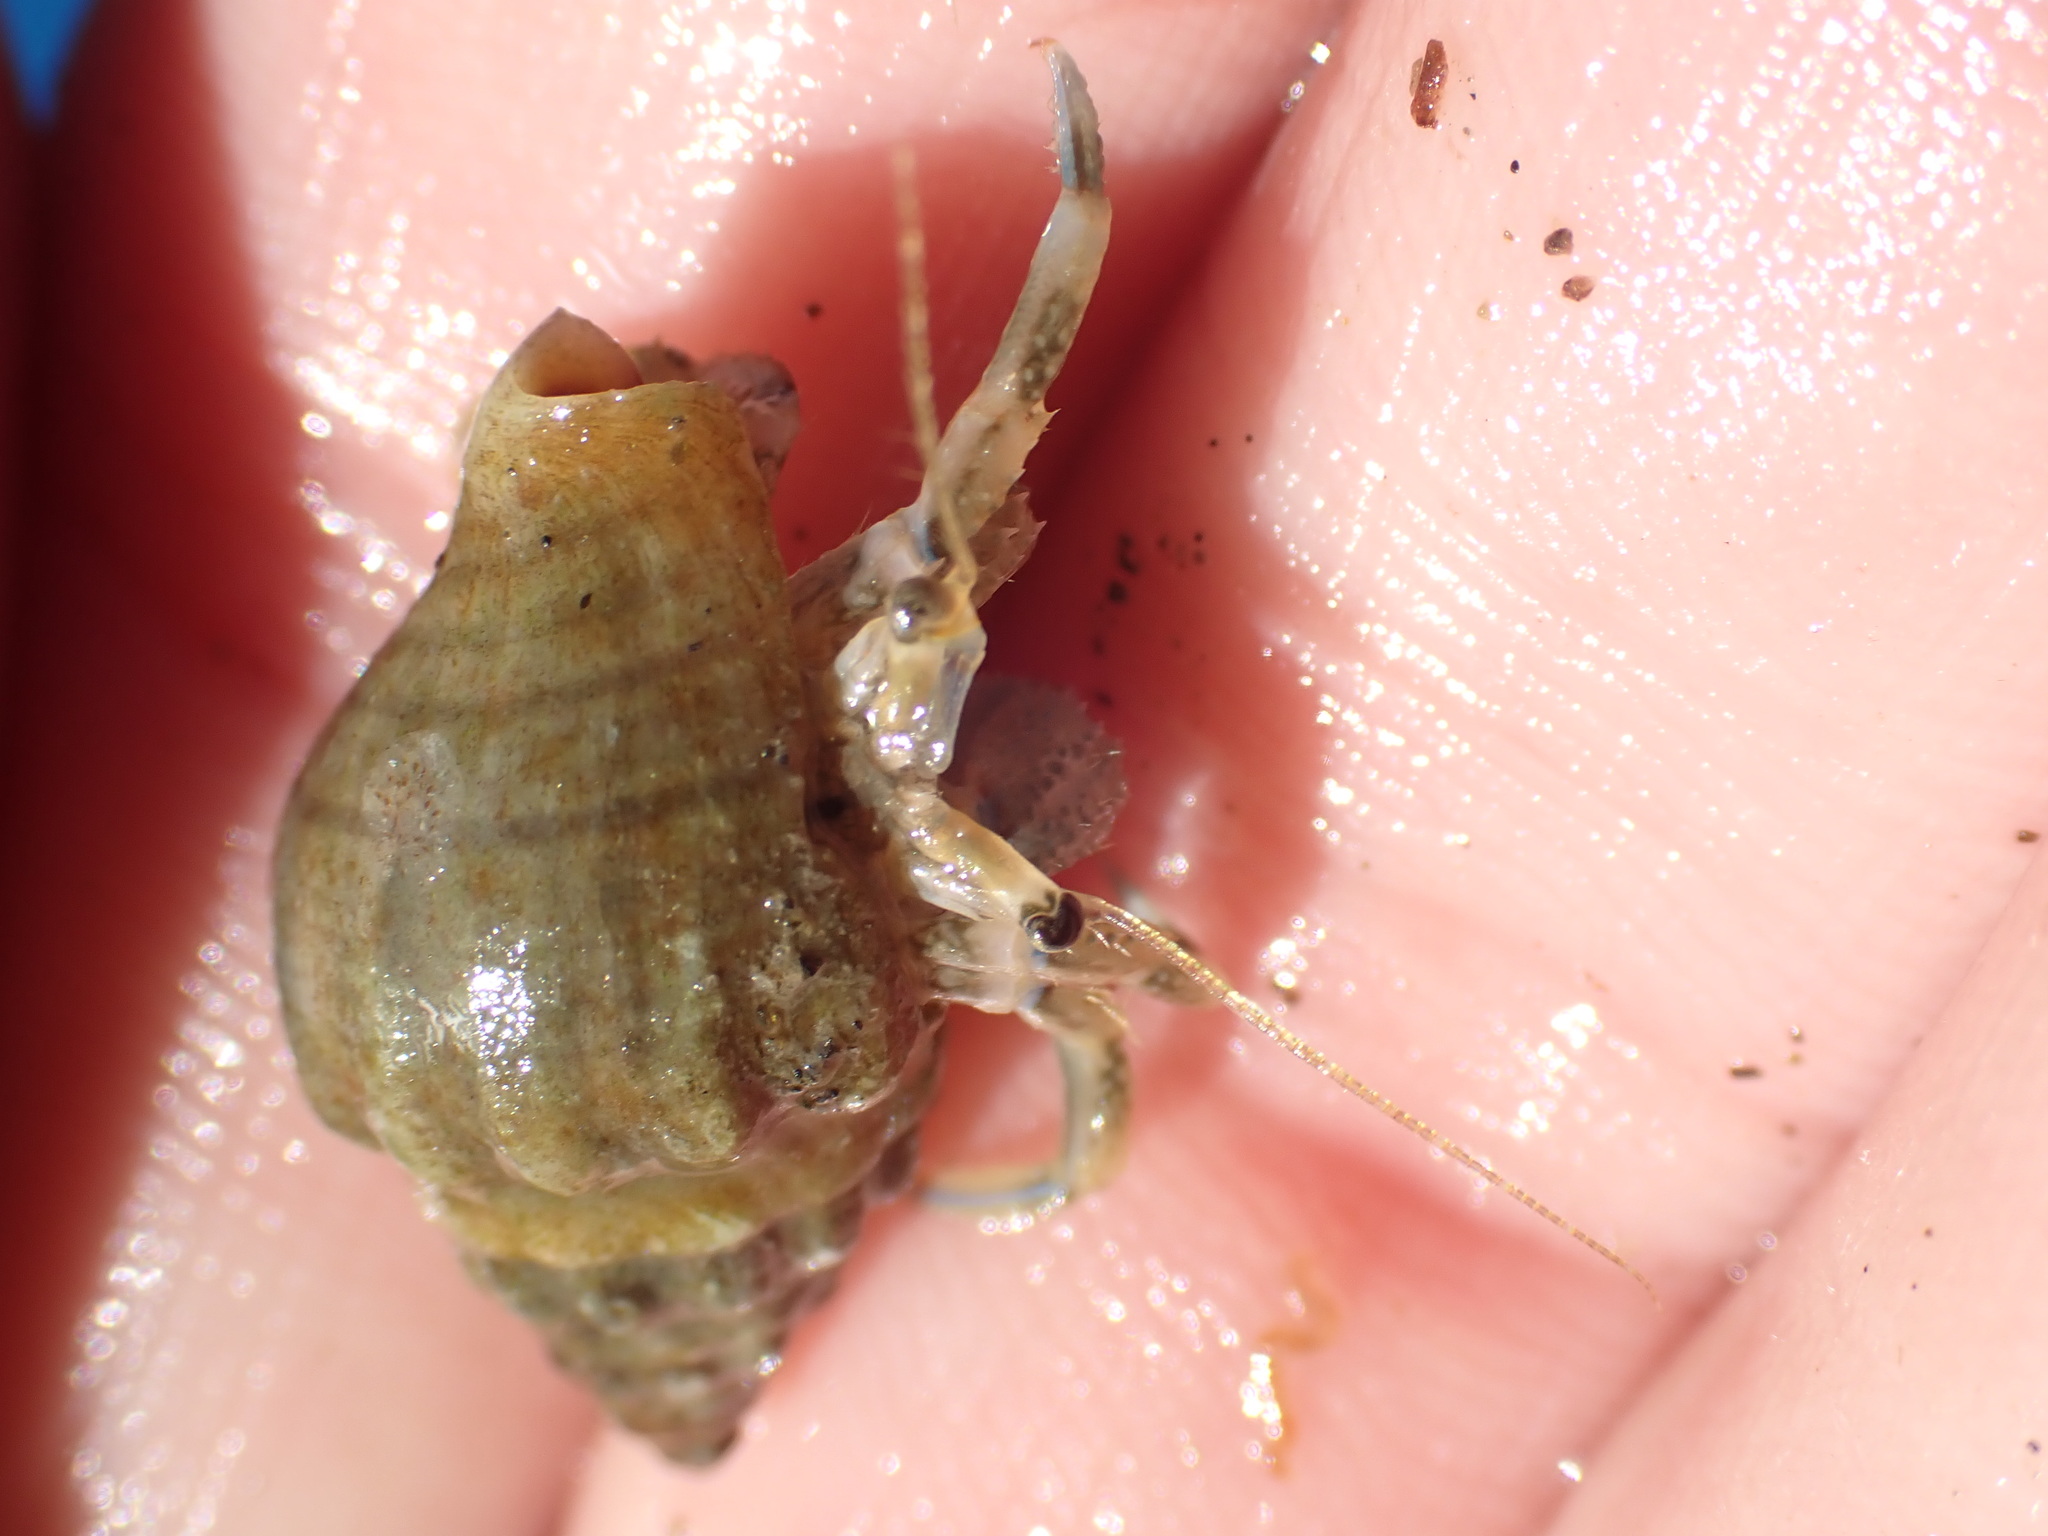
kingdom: Animalia
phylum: Arthropoda
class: Malacostraca
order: Decapoda
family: Paguridae
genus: Pagurus
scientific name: Pagurus novizealandiae
